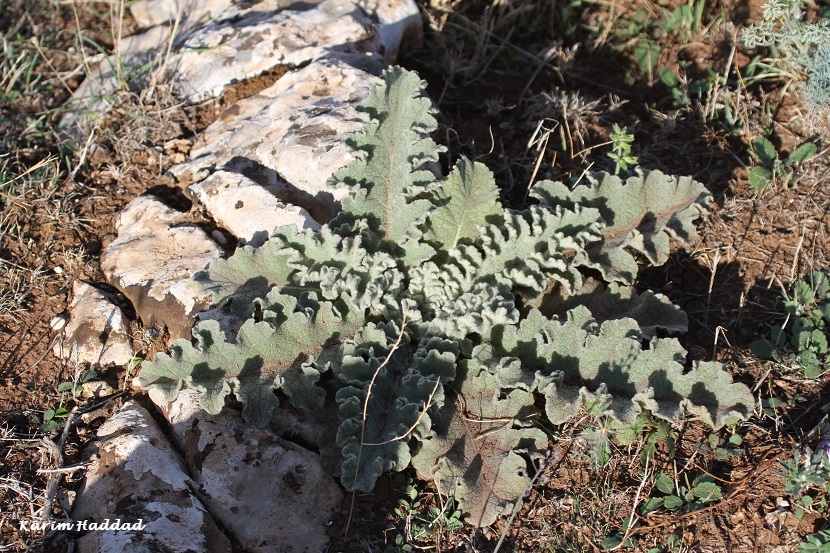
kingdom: Plantae
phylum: Tracheophyta
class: Magnoliopsida
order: Lamiales
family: Scrophulariaceae
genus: Verbascum
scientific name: Verbascum sinuatum
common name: Wavyleaf mullein
